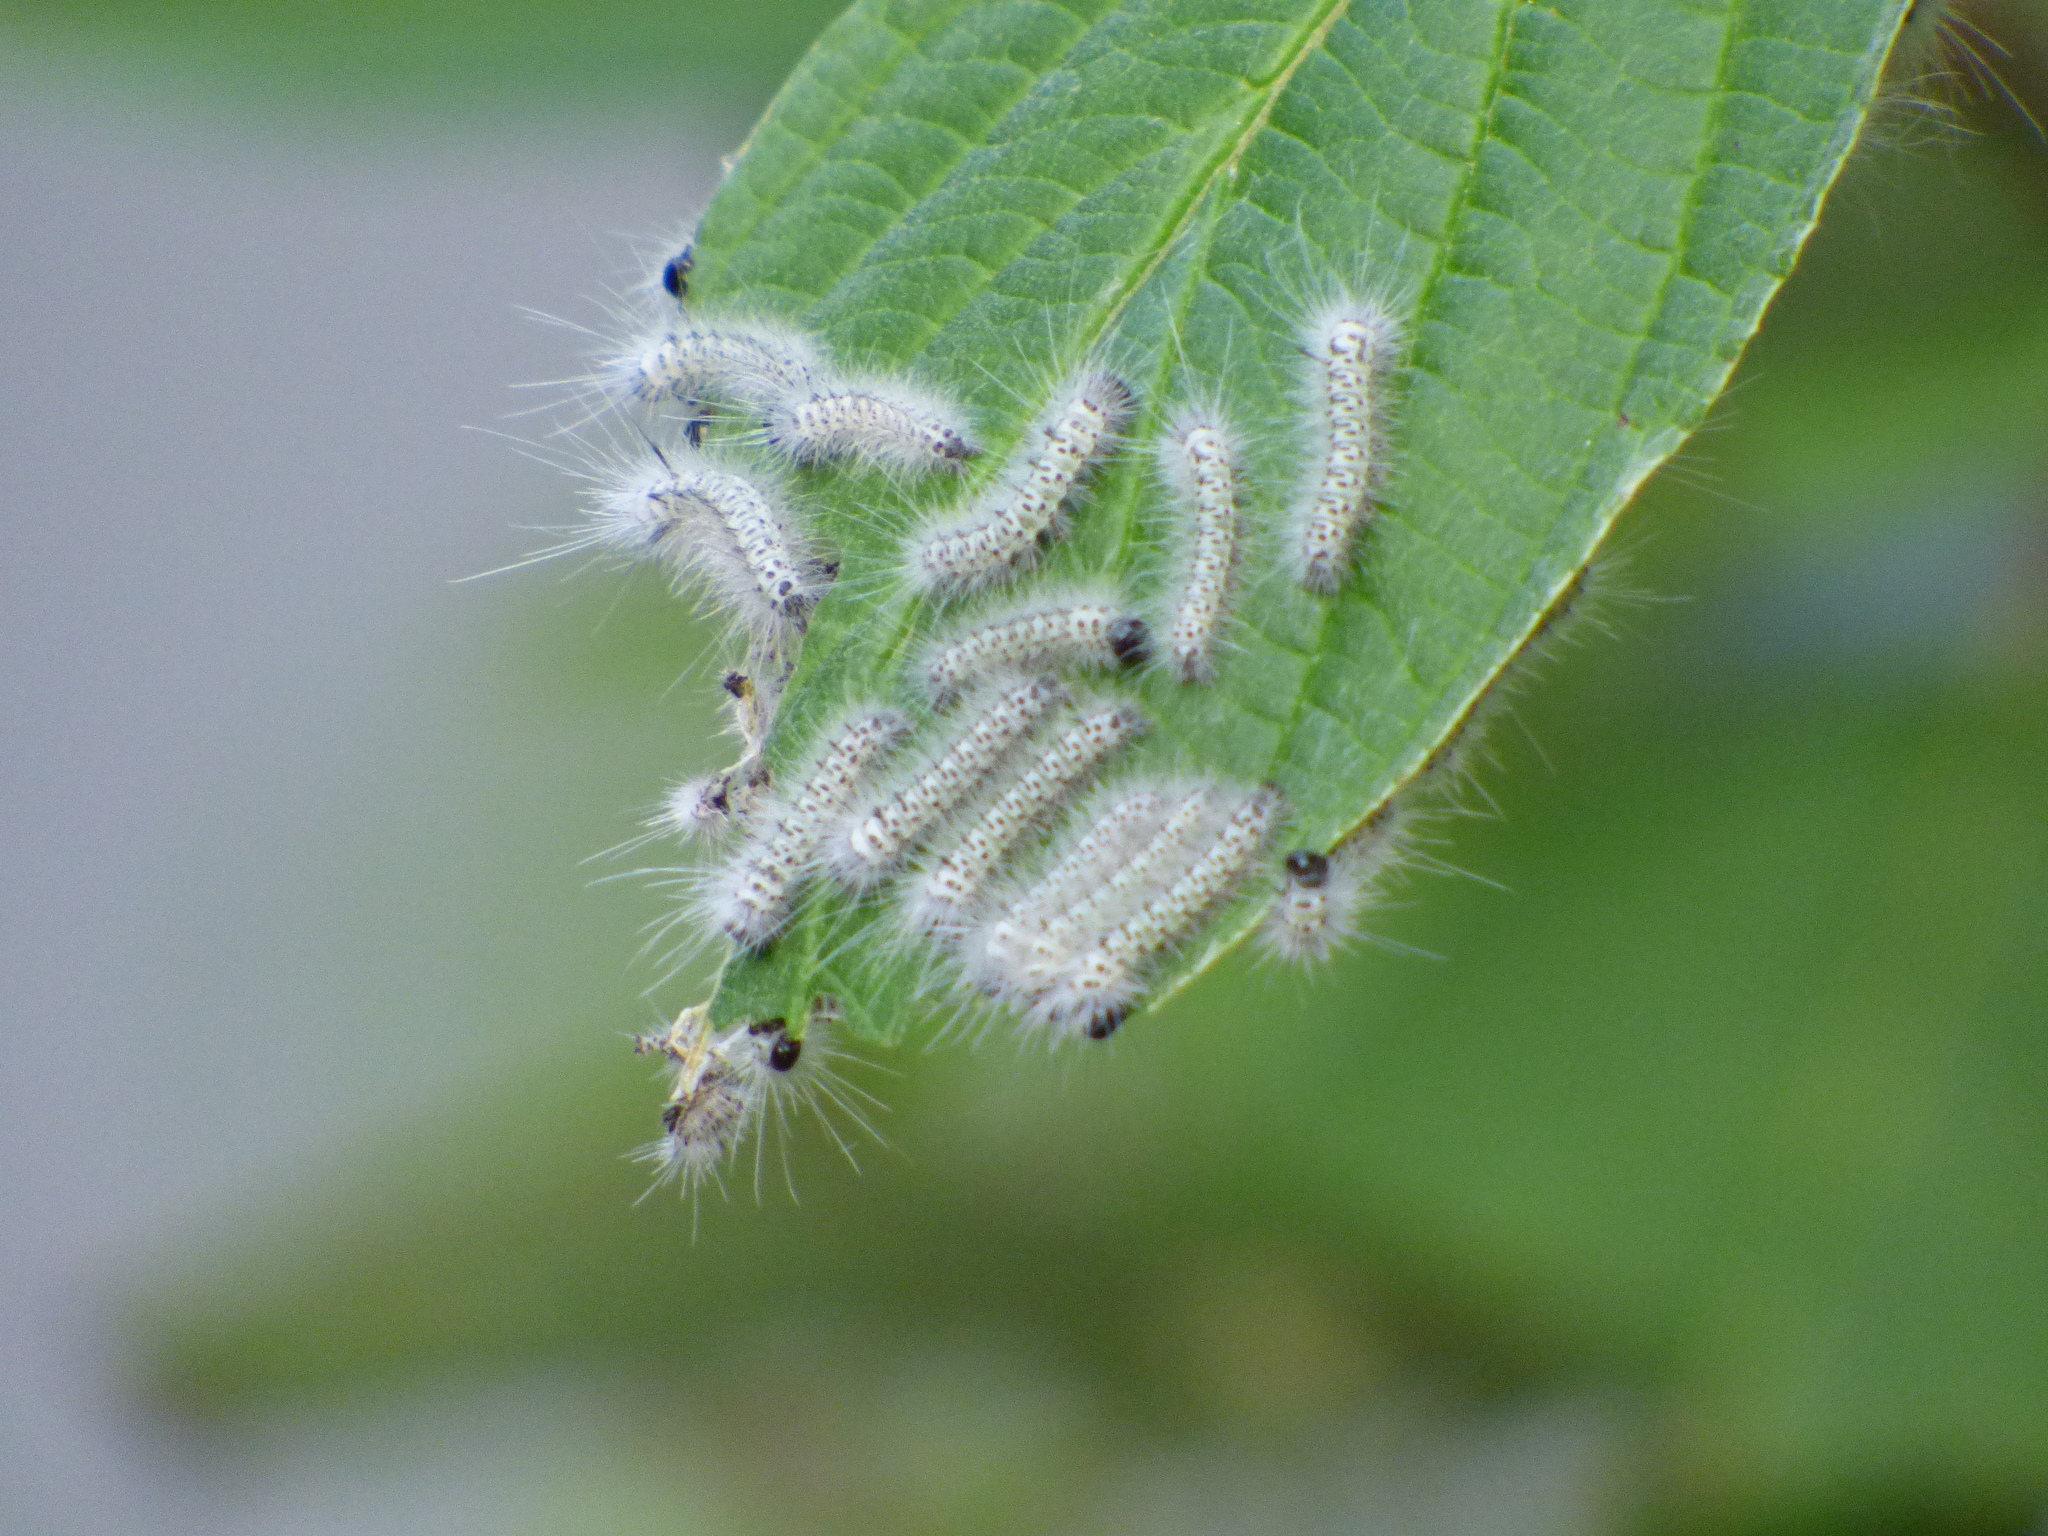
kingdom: Animalia
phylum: Arthropoda
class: Insecta
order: Lepidoptera
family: Erebidae
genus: Lophocampa
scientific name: Lophocampa caryae
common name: Hickory tussock moth
